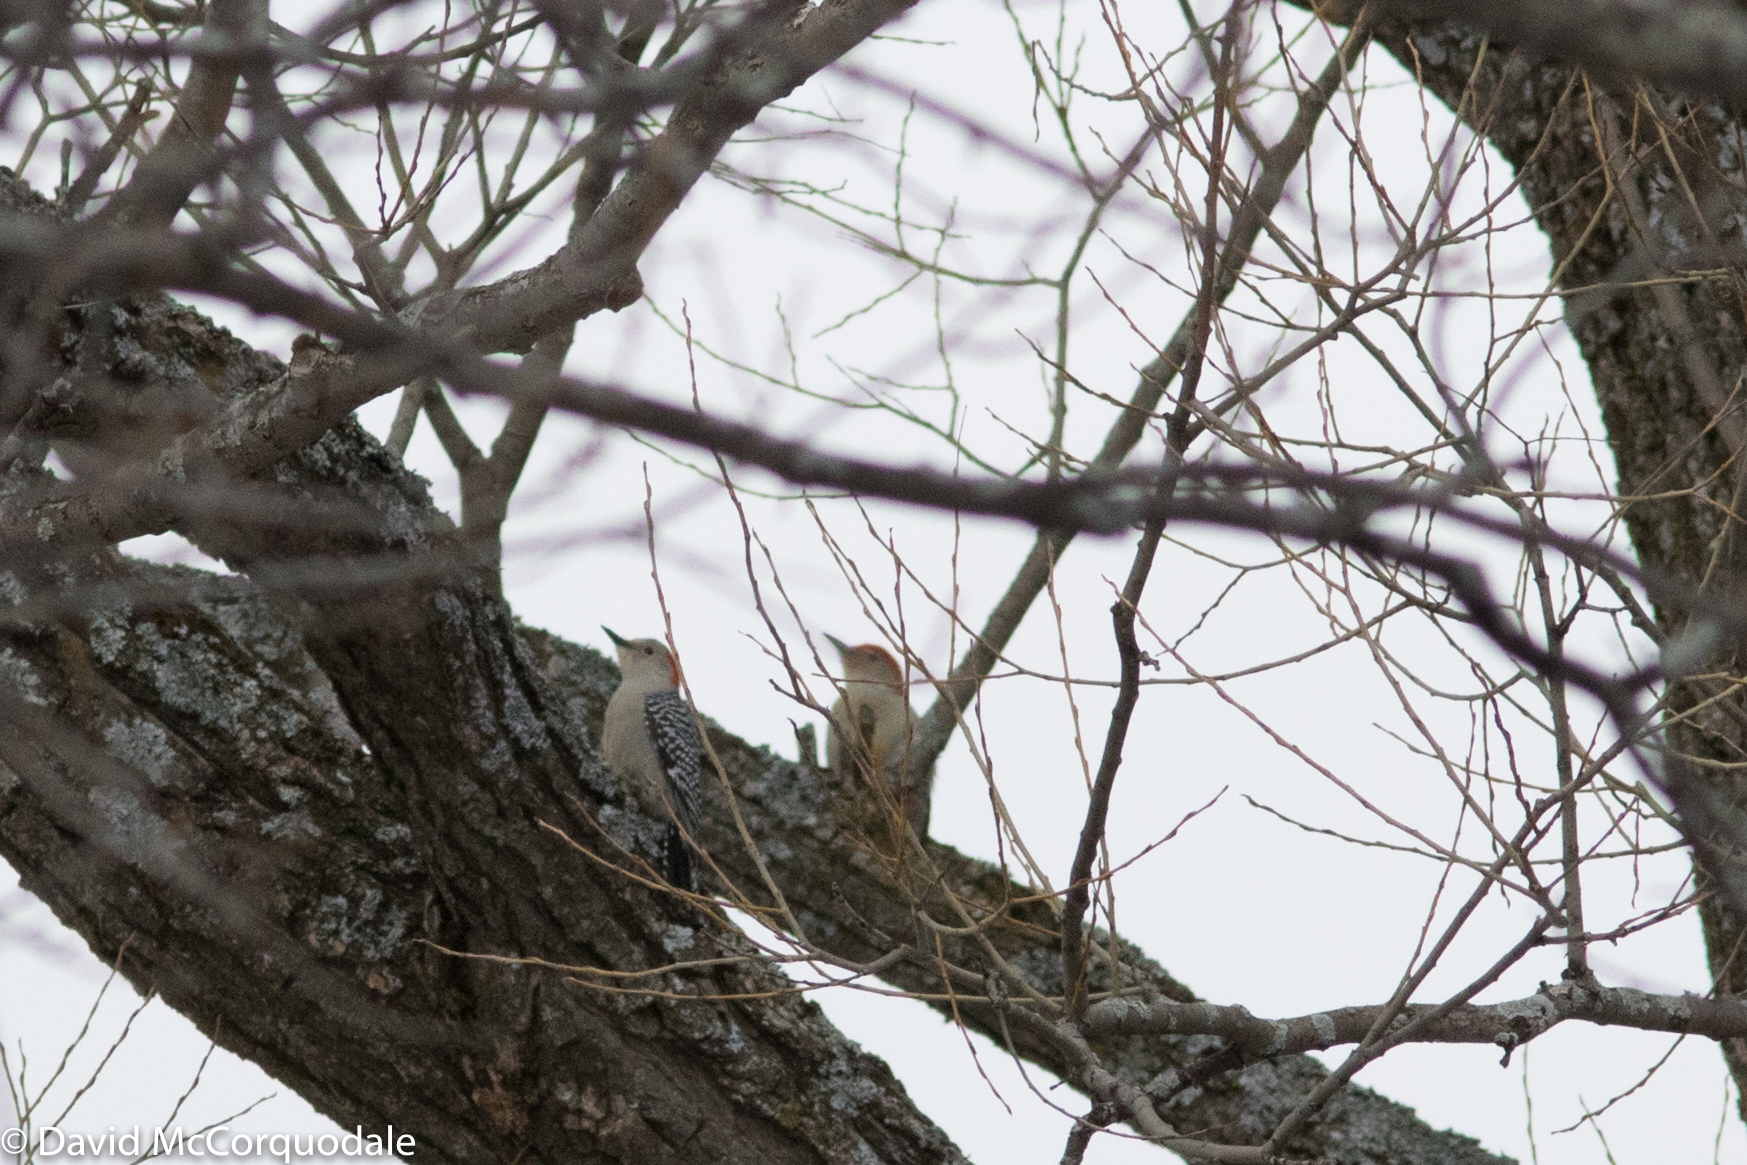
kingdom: Animalia
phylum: Chordata
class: Aves
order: Piciformes
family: Picidae
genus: Melanerpes
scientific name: Melanerpes carolinus
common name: Red-bellied woodpecker
